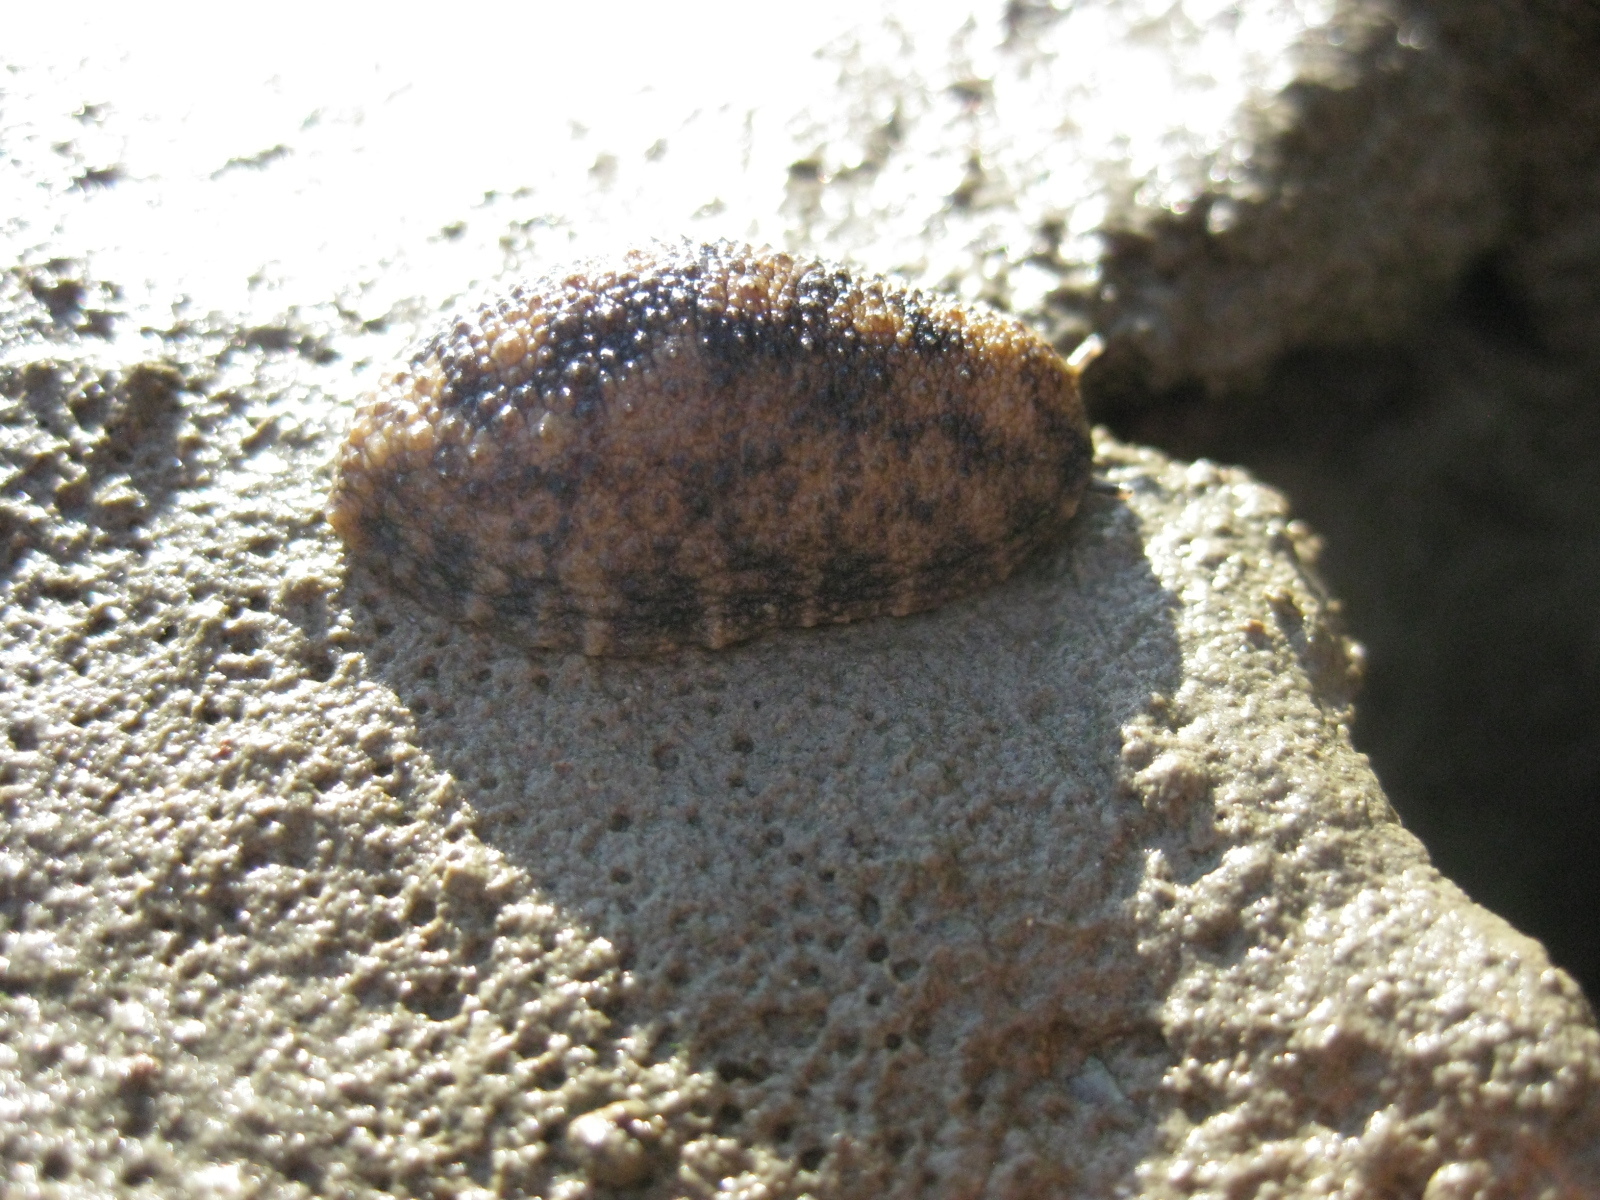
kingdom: Animalia
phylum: Mollusca
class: Gastropoda
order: Systellommatophora
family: Onchidiidae
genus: Onchidella
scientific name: Onchidella nigricans
